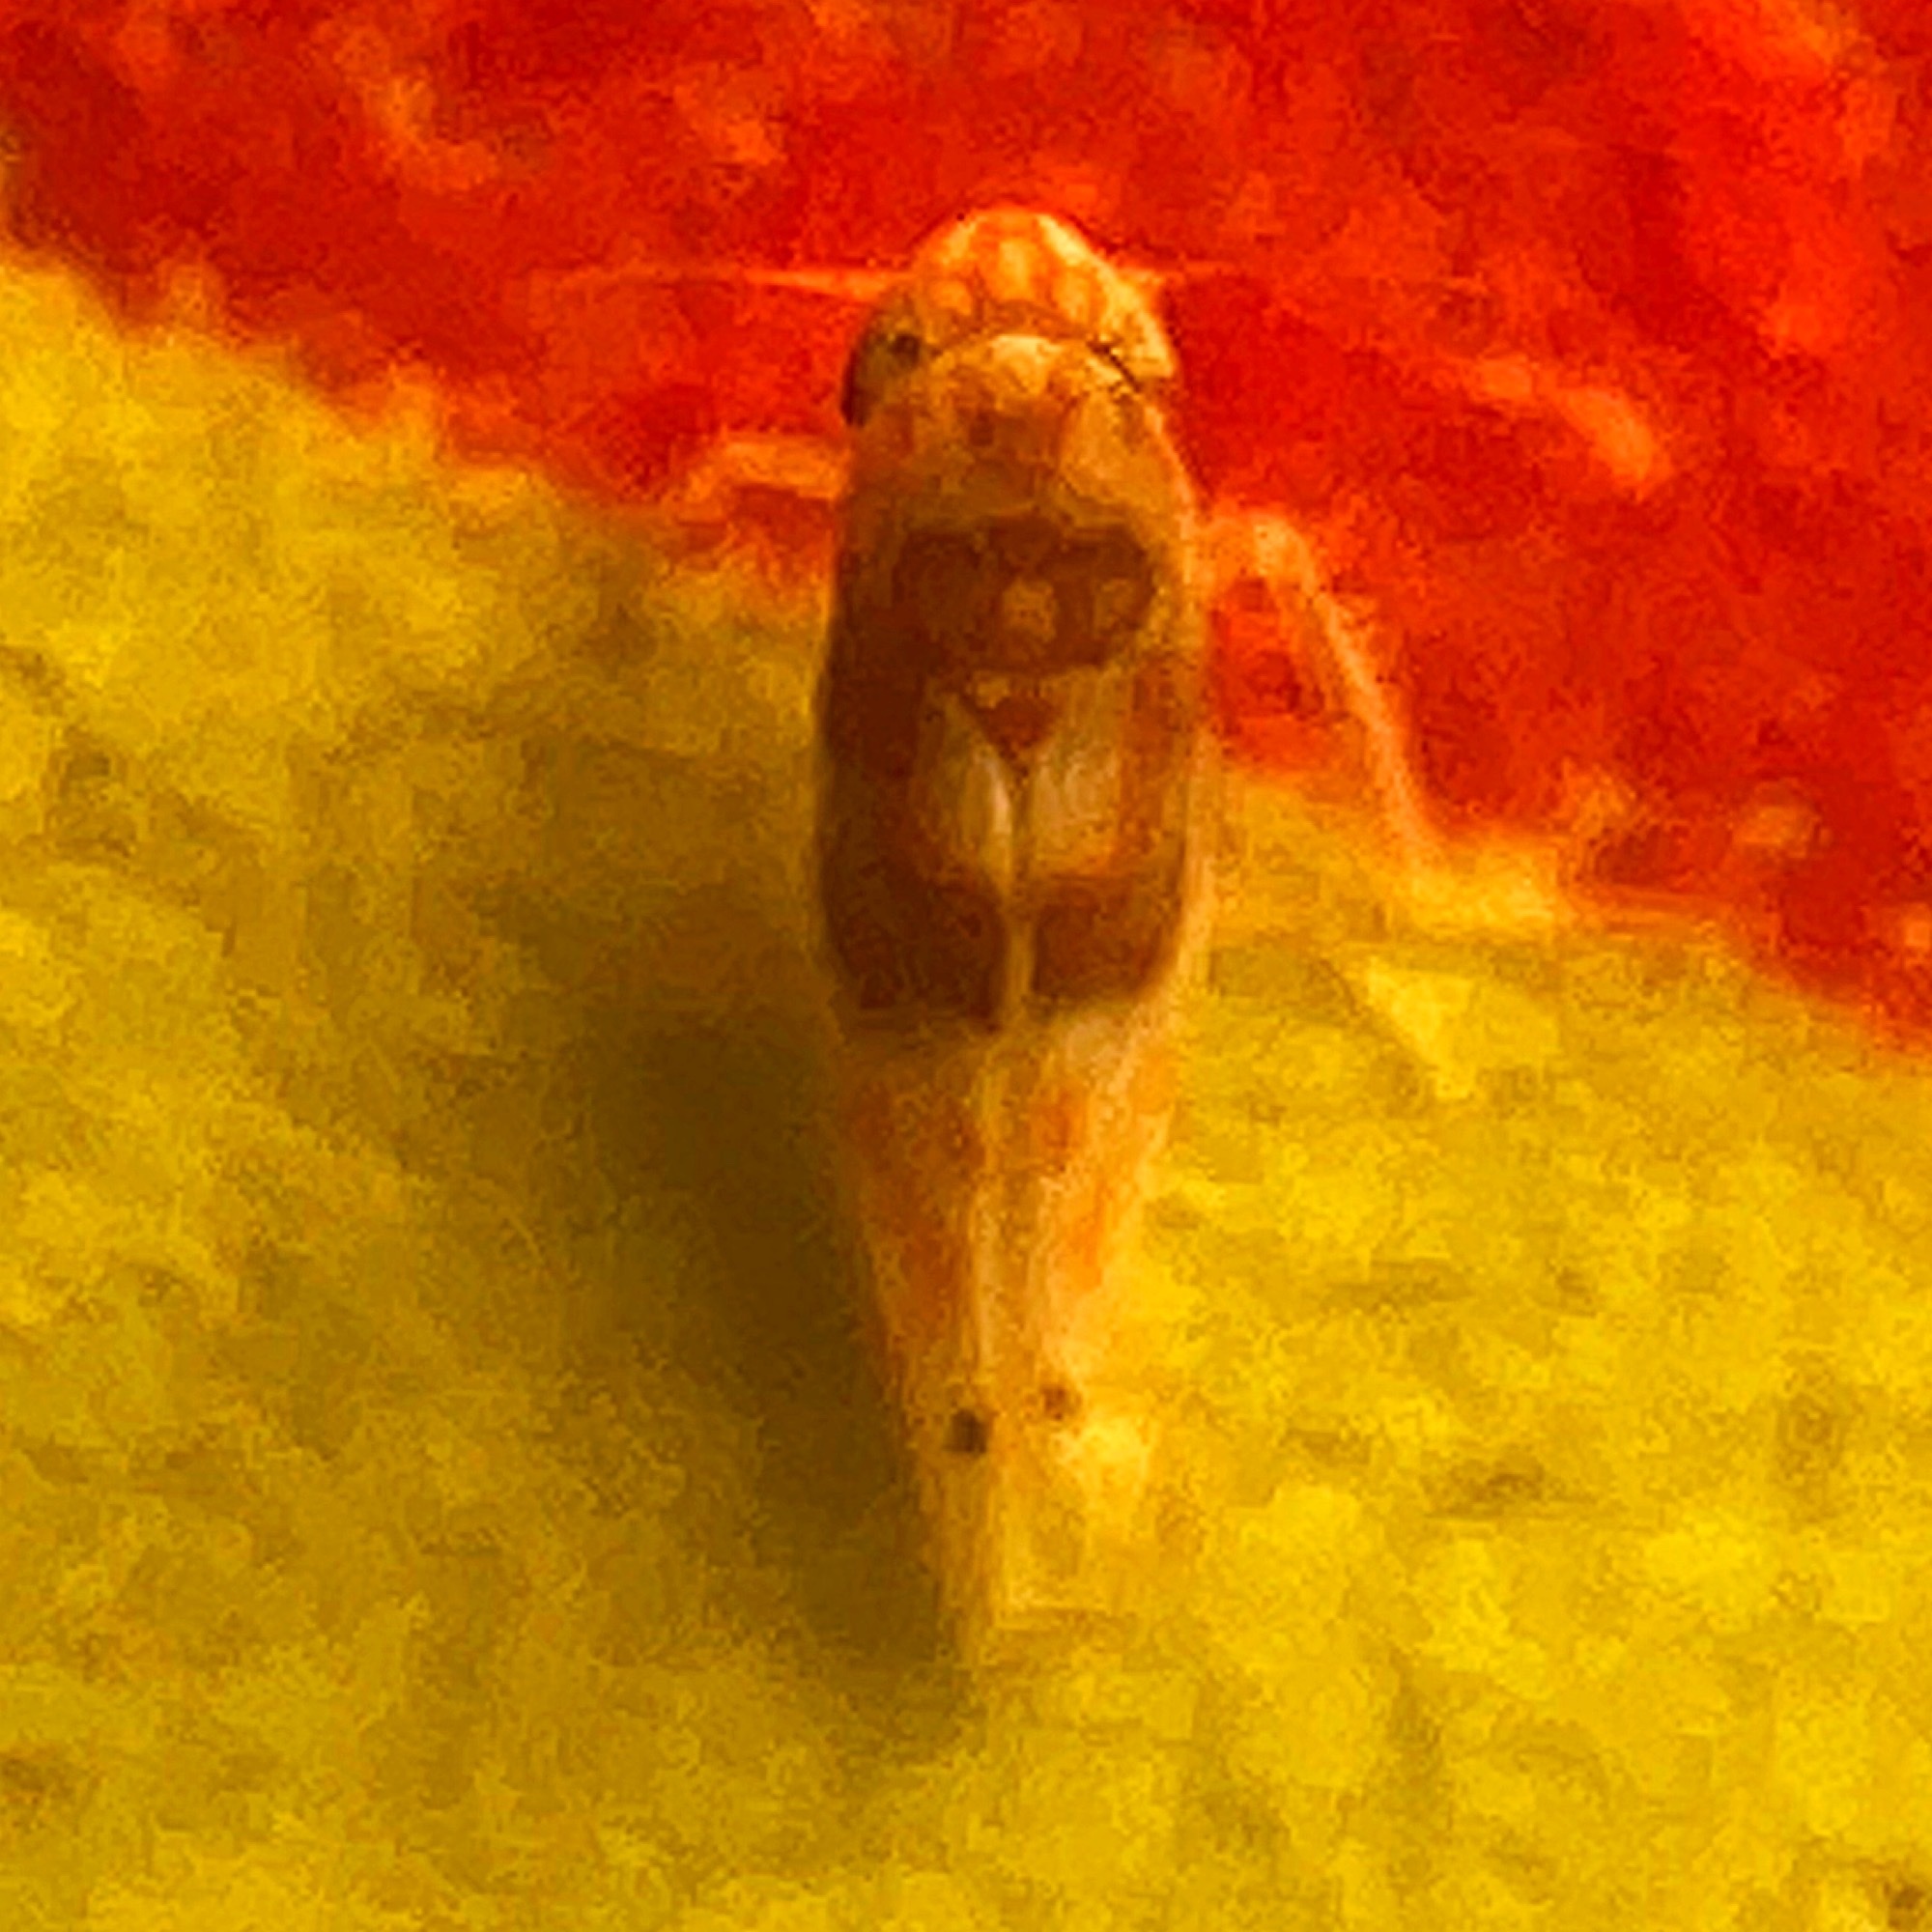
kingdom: Animalia
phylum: Arthropoda
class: Insecta
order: Hemiptera
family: Cicadellidae
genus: Eratoneura
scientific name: Eratoneura affinis
